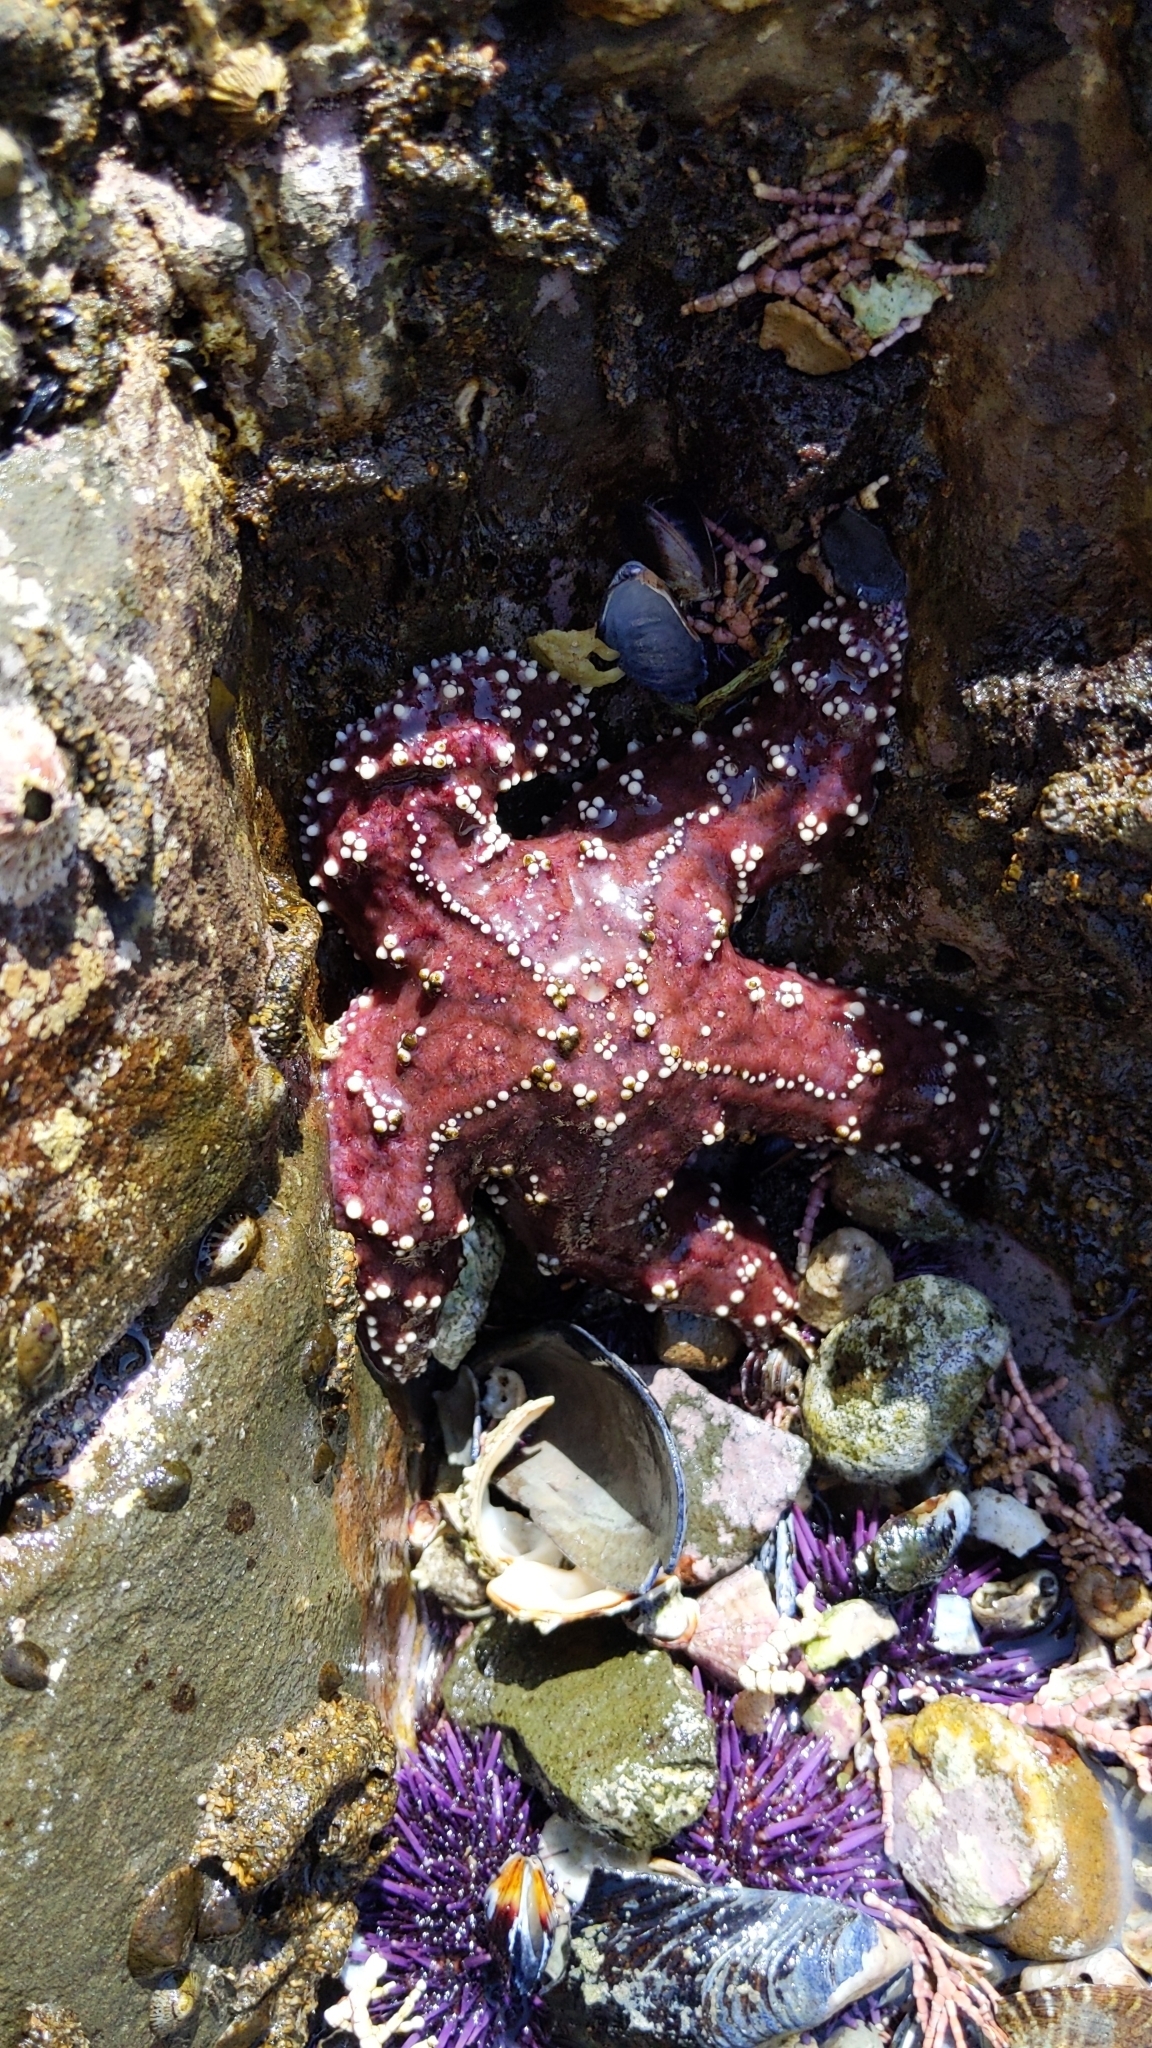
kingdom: Animalia
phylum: Echinodermata
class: Asteroidea
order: Forcipulatida
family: Asteriidae
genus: Pisaster
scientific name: Pisaster ochraceus
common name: Ochre stars
